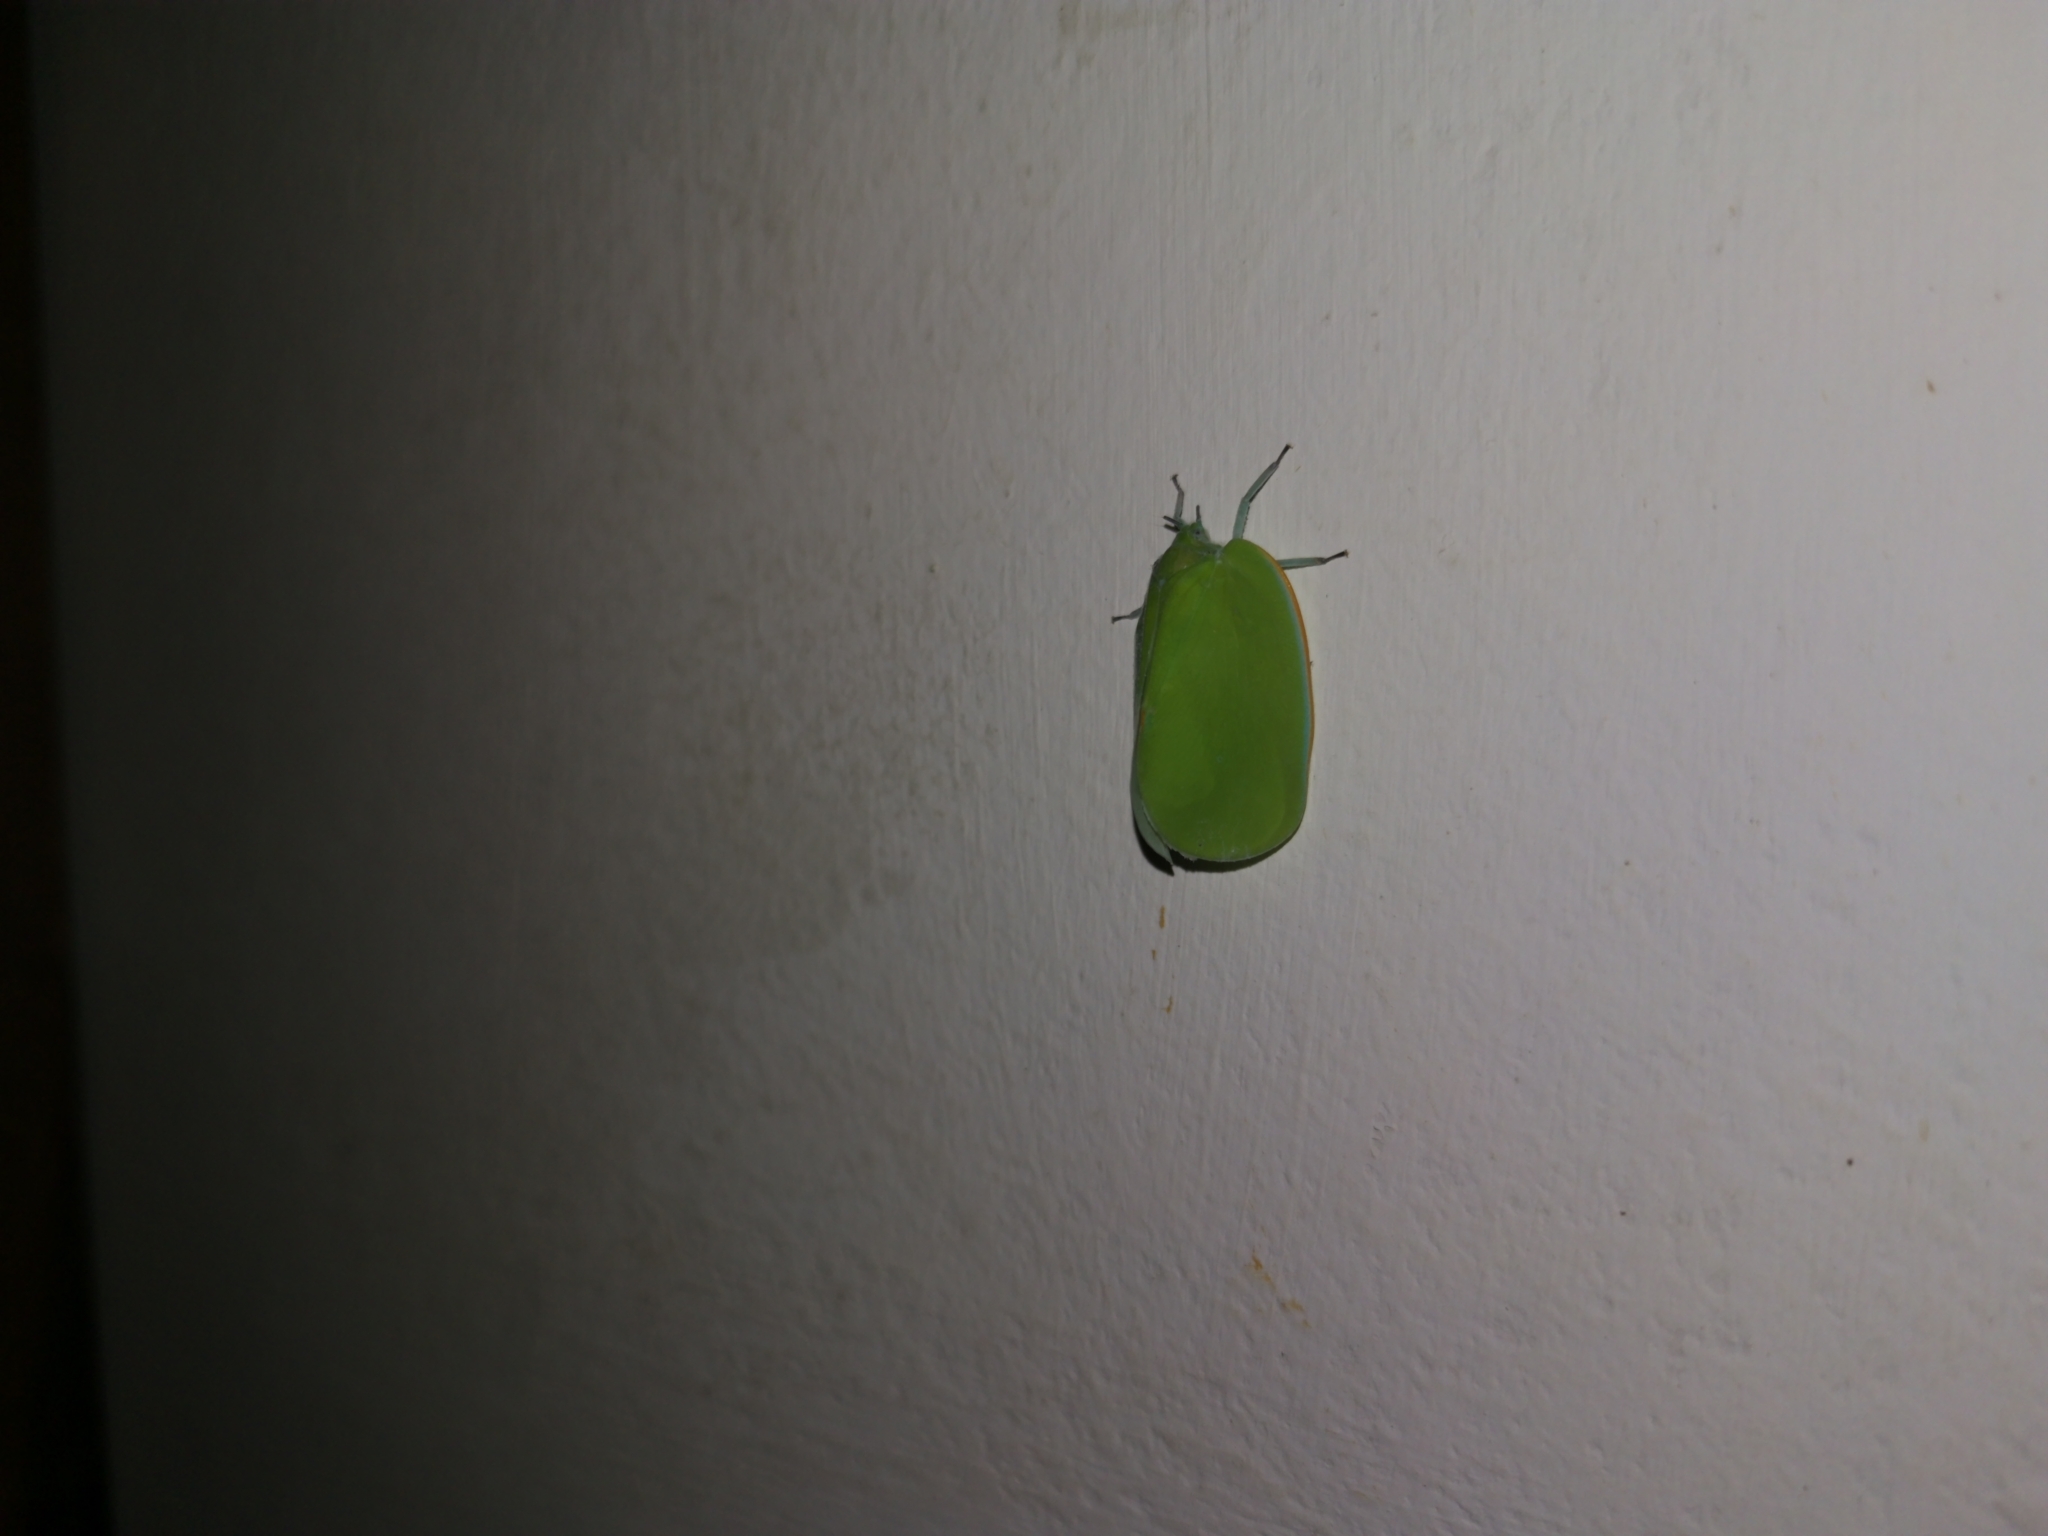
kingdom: Animalia
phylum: Arthropoda
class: Insecta
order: Hemiptera
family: Flatidae
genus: Flatida
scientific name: Flatida marginella
